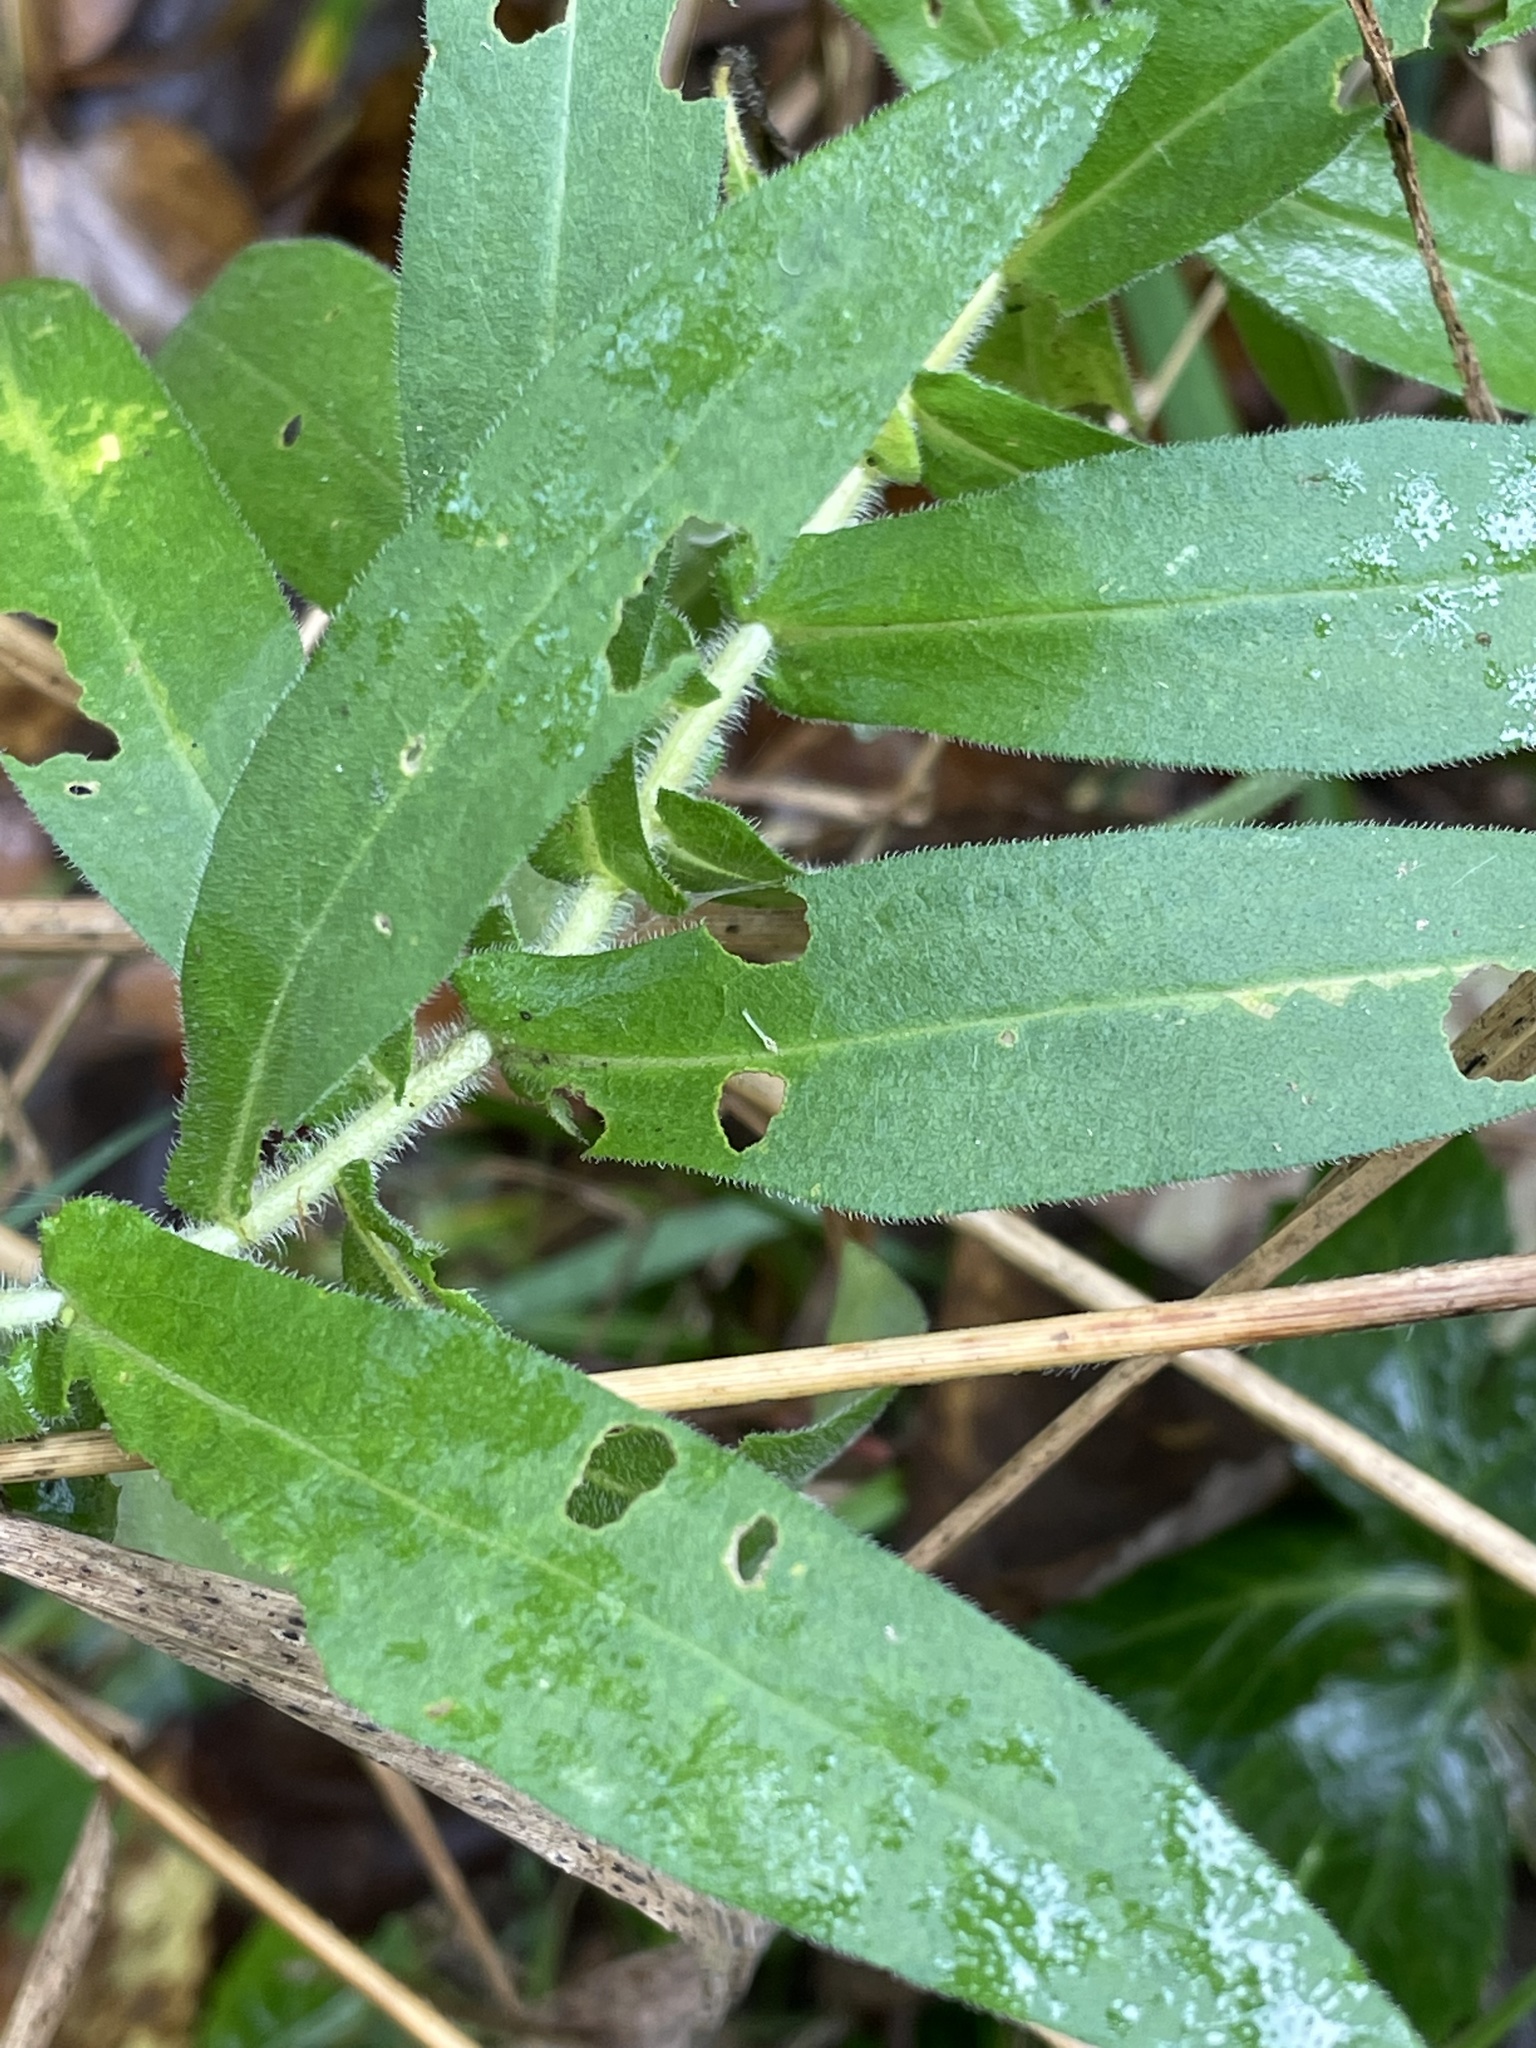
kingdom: Plantae
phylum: Tracheophyta
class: Magnoliopsida
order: Asterales
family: Asteraceae
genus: Symphyotrichum
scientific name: Symphyotrichum novae-angliae
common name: Michaelmas daisy
